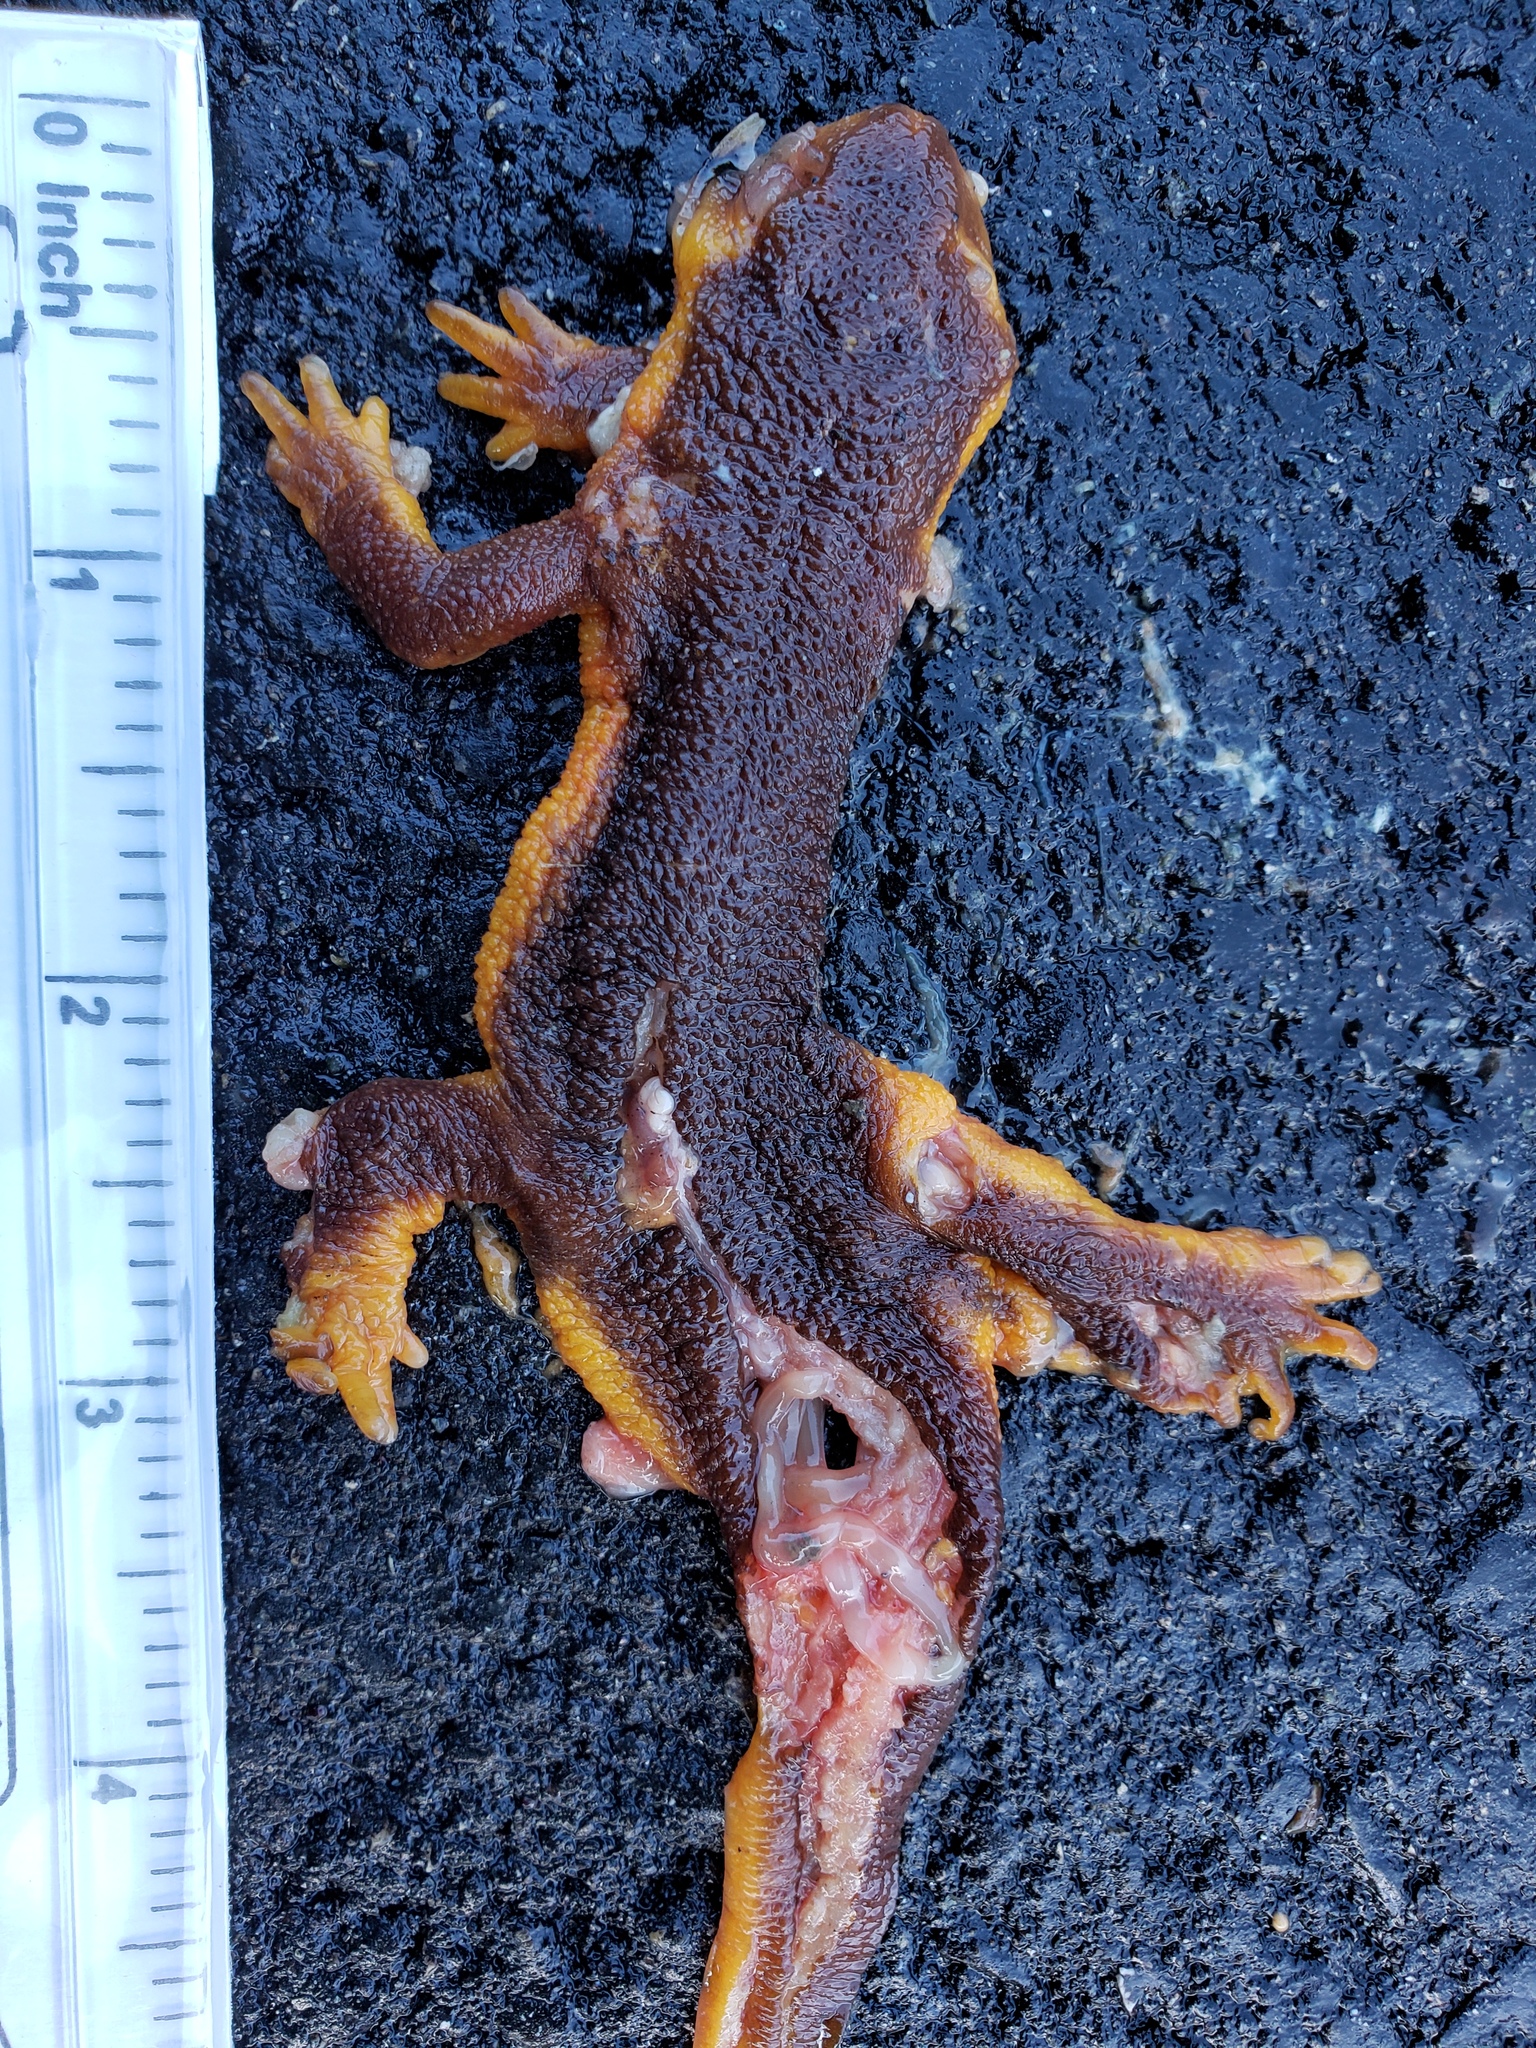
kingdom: Animalia
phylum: Chordata
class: Amphibia
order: Caudata
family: Salamandridae
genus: Taricha
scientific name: Taricha
